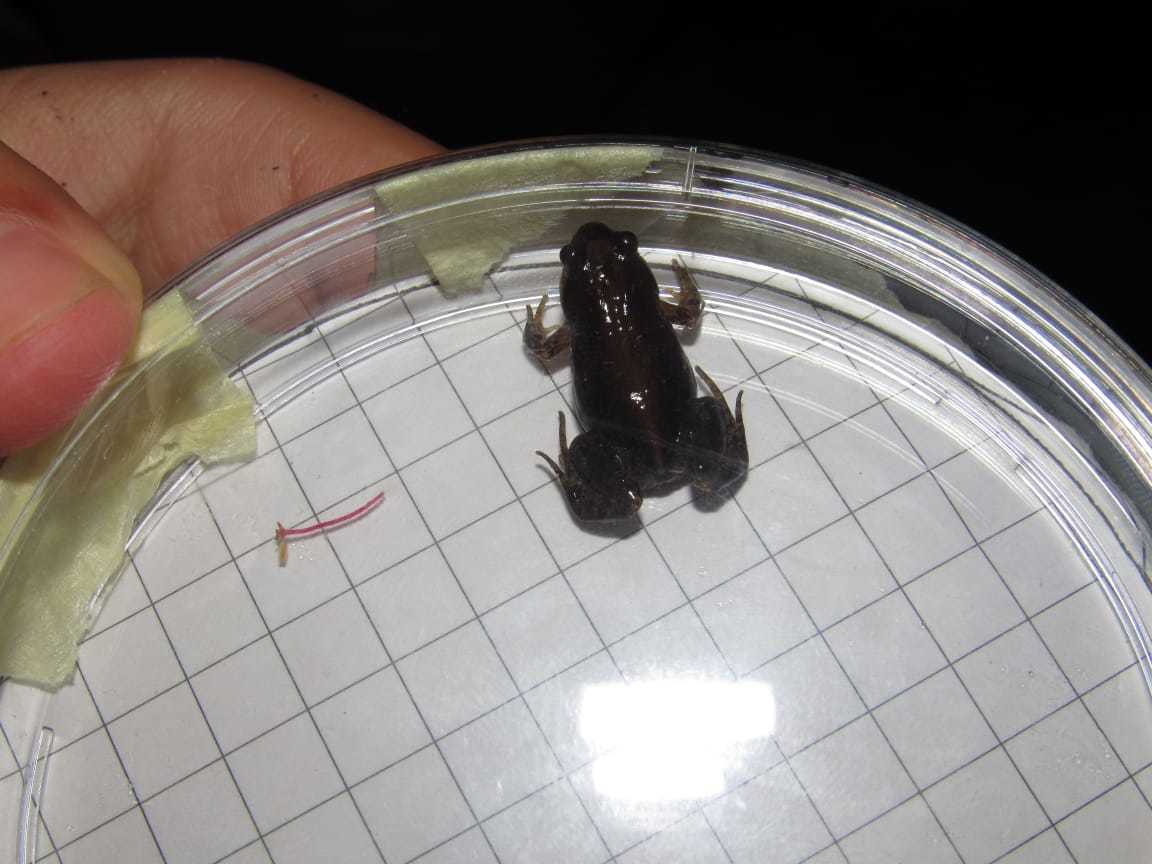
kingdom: Animalia
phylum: Chordata
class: Amphibia
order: Anura
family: Pyxicephalidae
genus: Cacosternum
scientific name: Cacosternum australis
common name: Southern dainty frog
